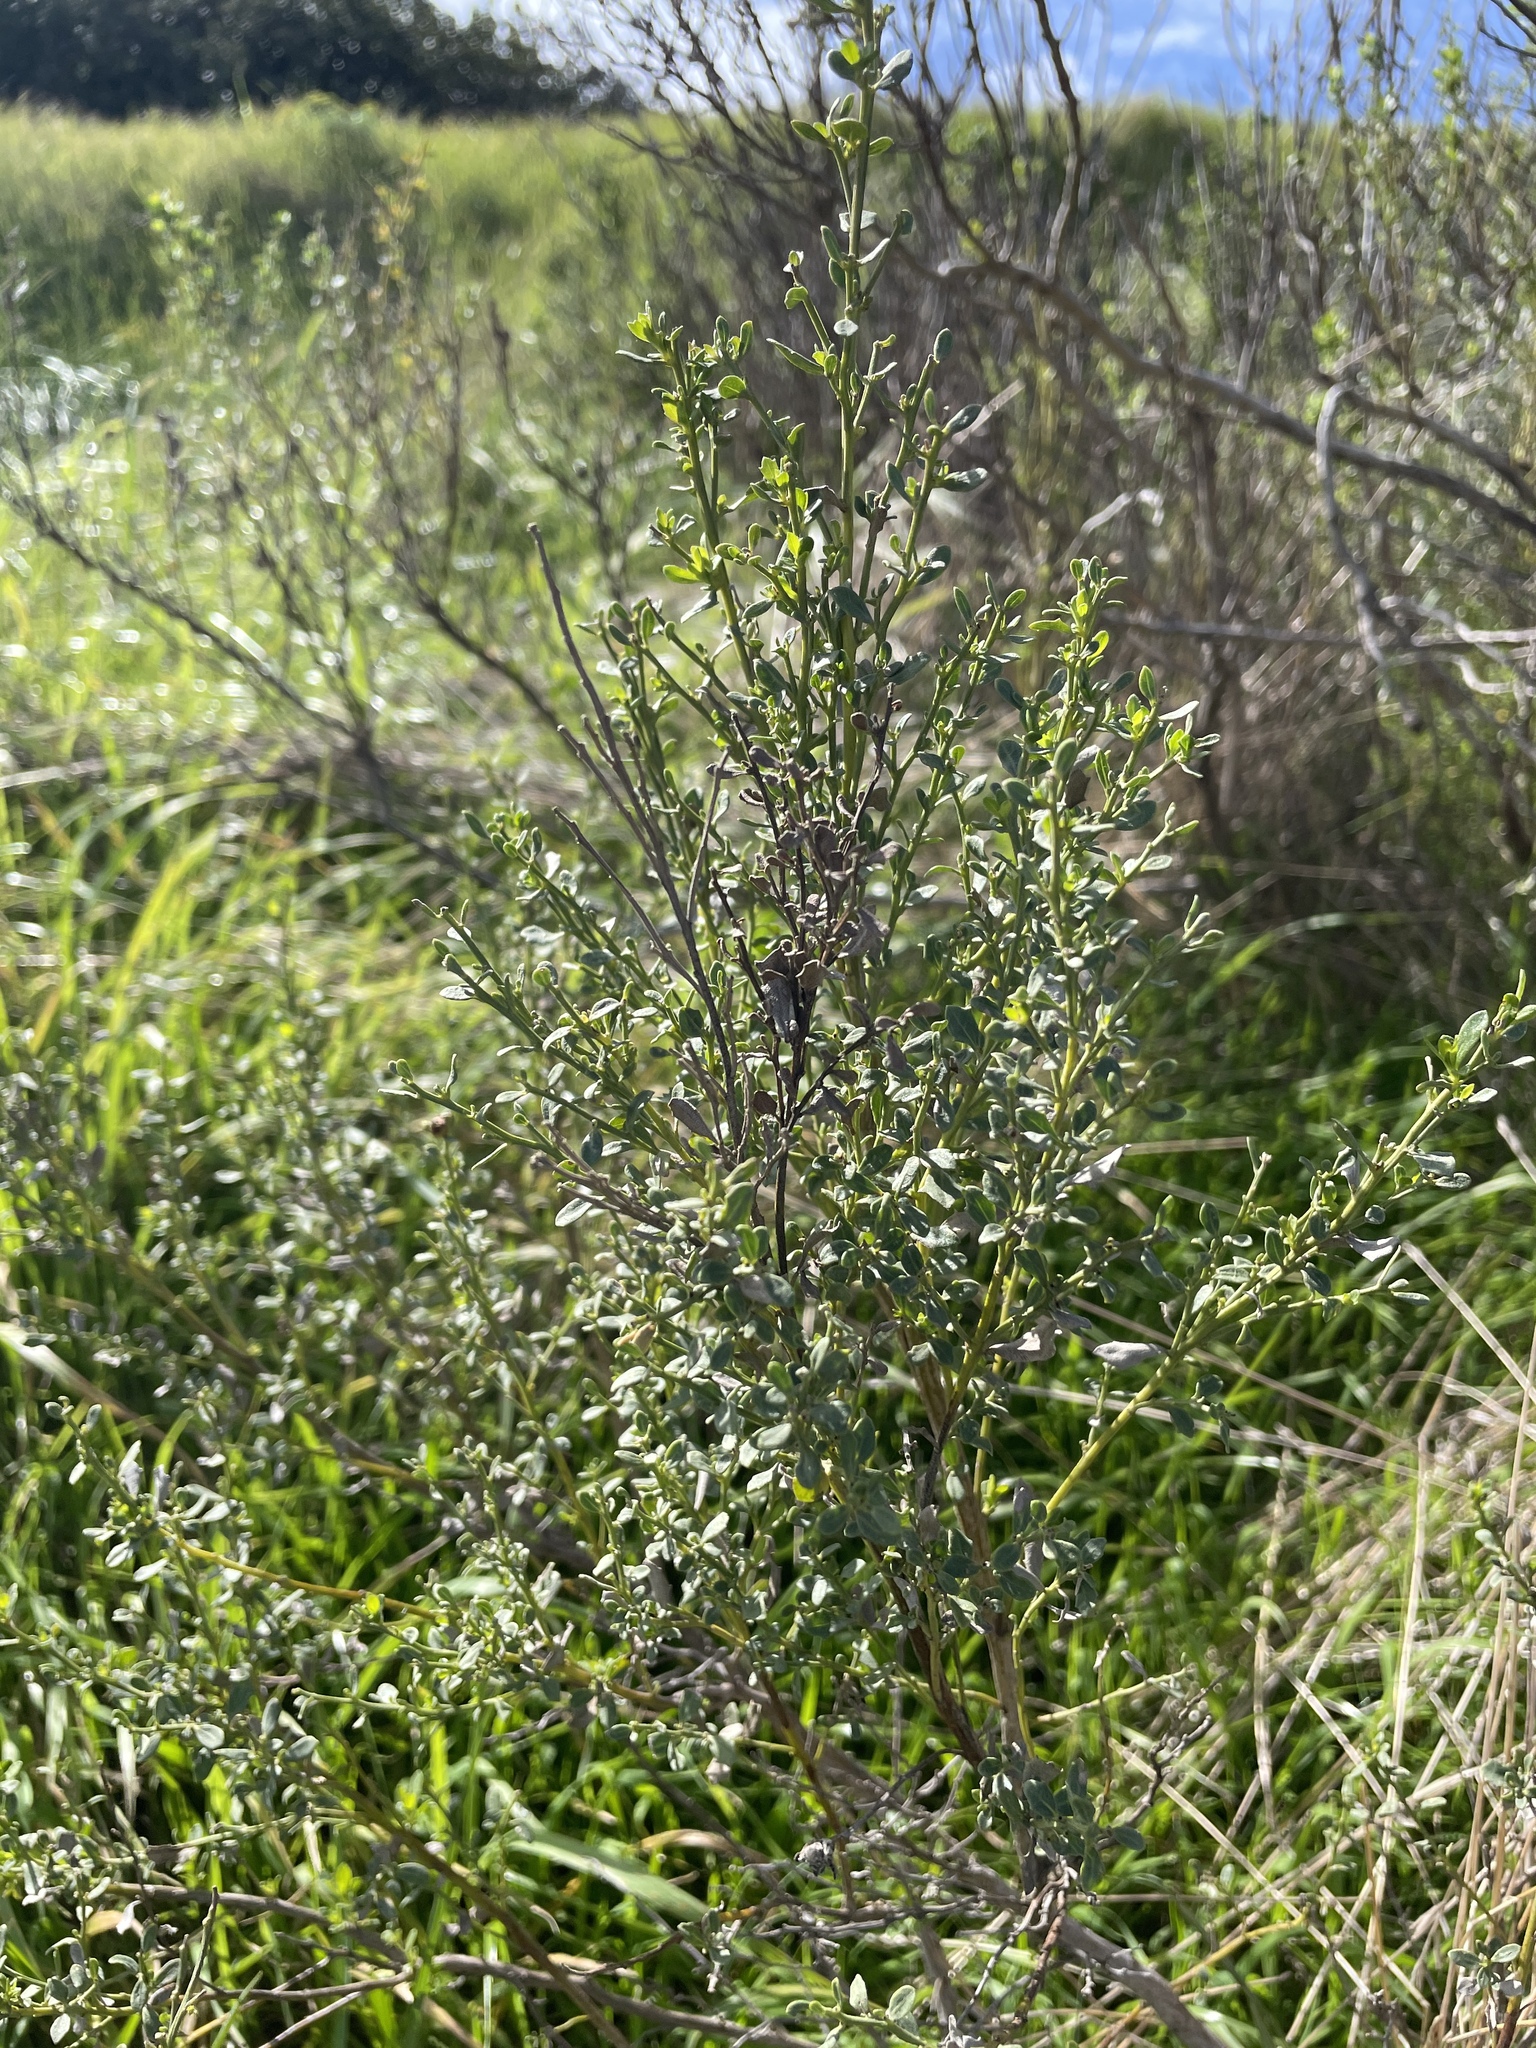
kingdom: Plantae
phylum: Tracheophyta
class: Magnoliopsida
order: Asterales
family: Asteraceae
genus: Baccharis
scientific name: Baccharis pilularis
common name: Coyotebrush
